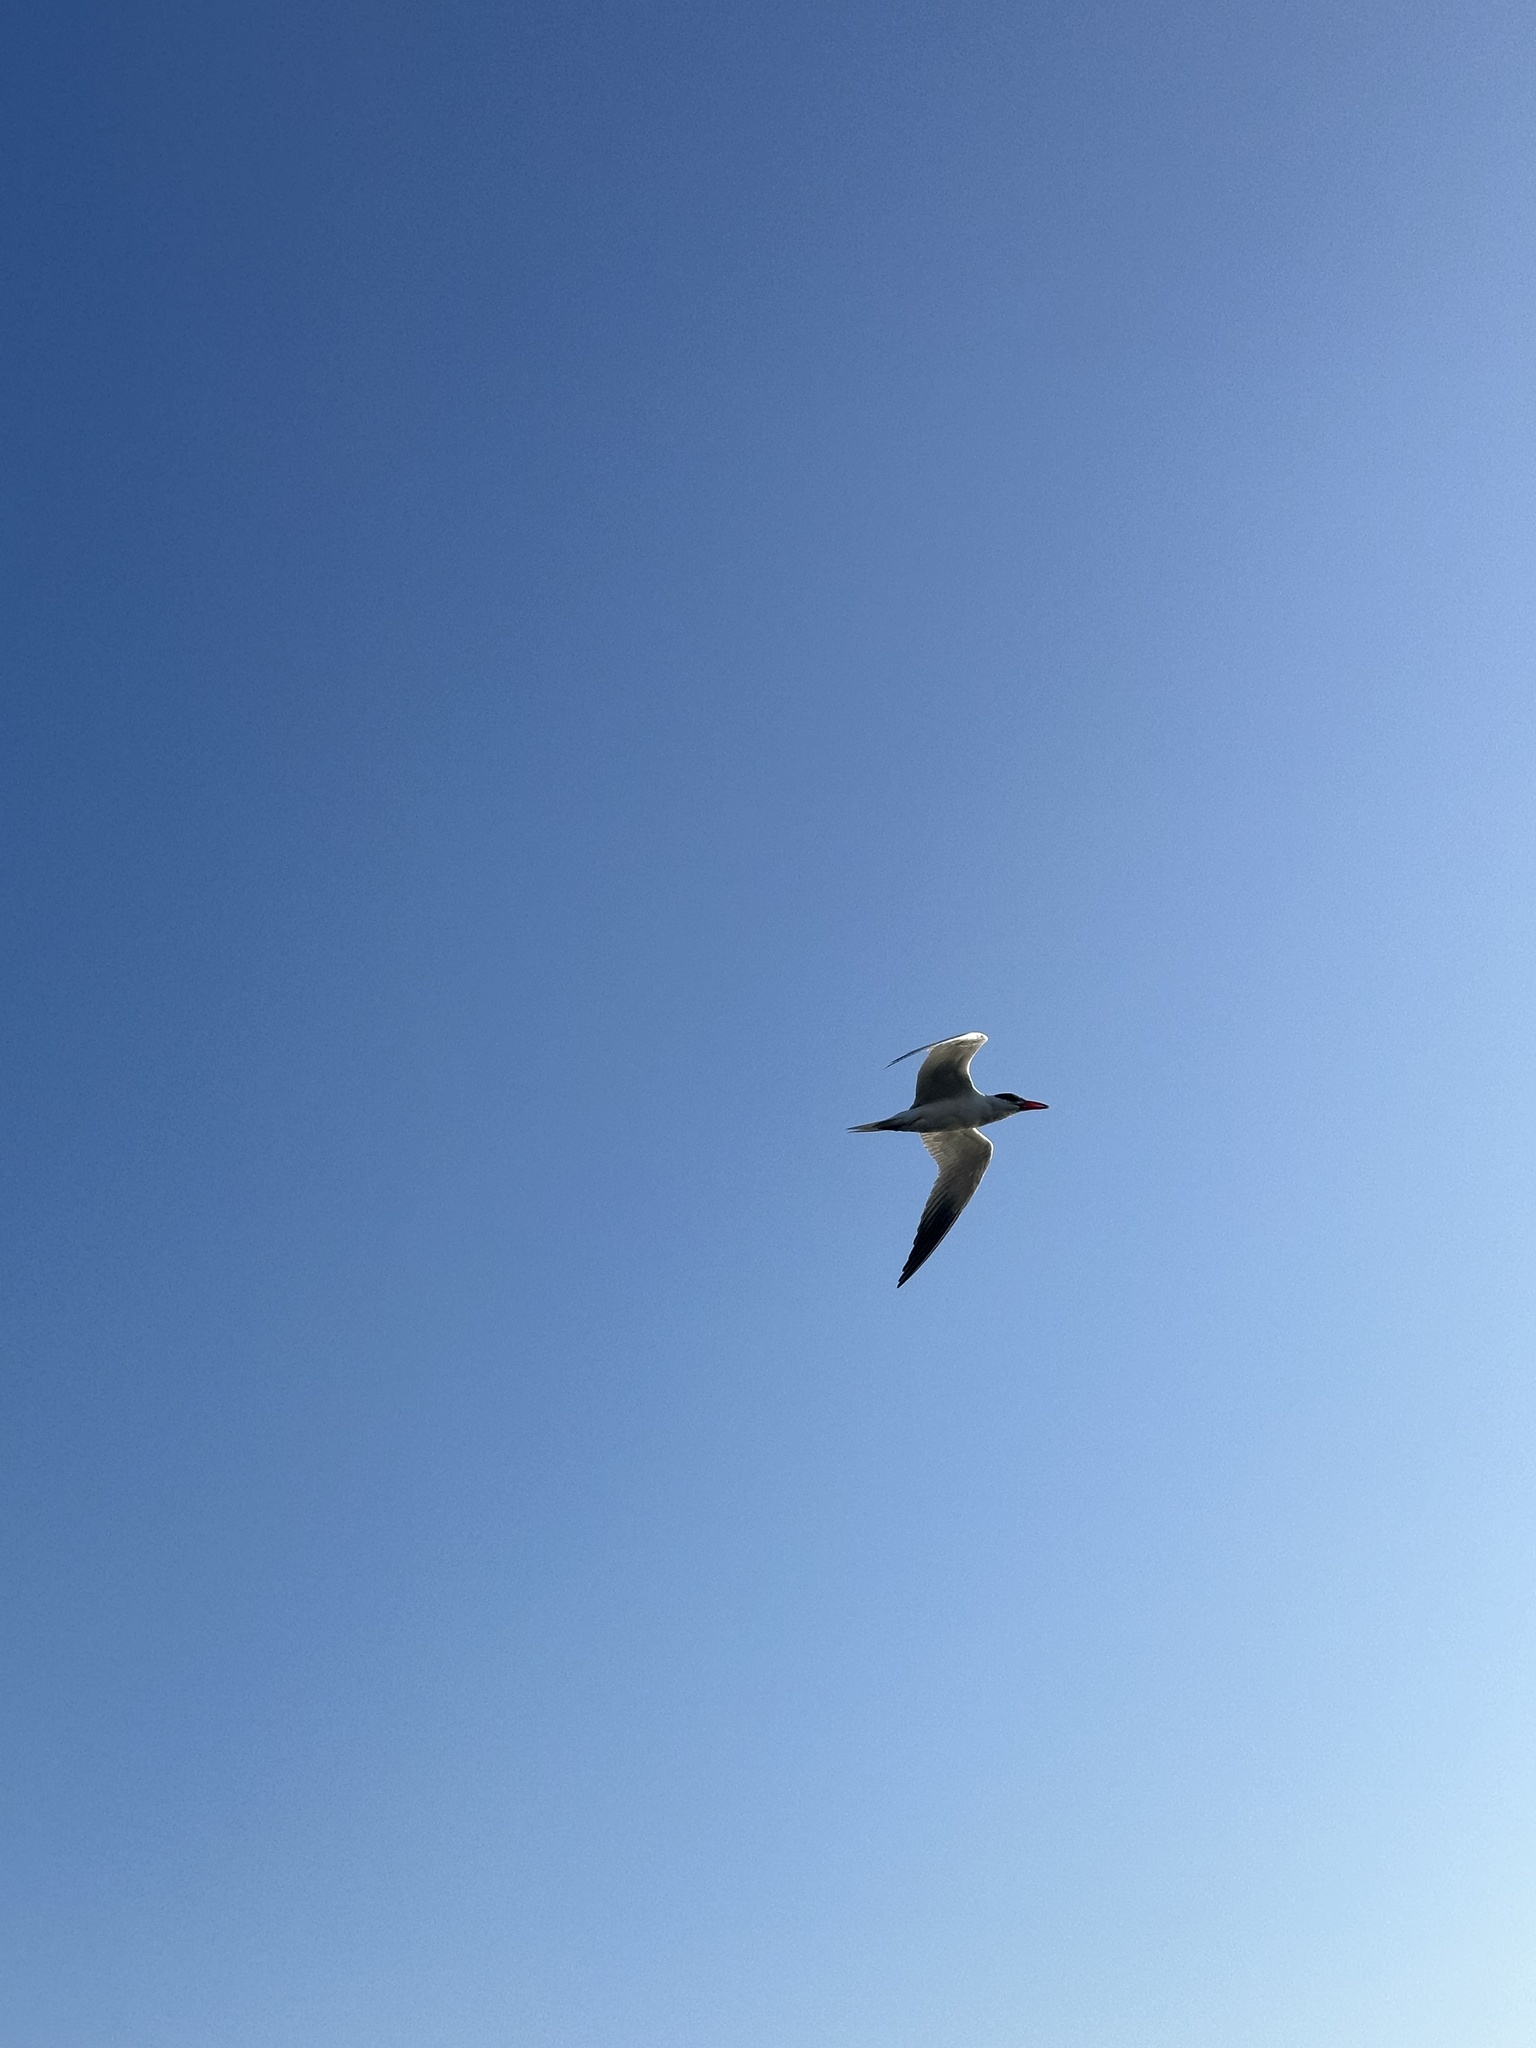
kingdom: Animalia
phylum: Chordata
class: Aves
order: Charadriiformes
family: Laridae
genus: Hydroprogne
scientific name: Hydroprogne caspia
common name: Caspian tern
